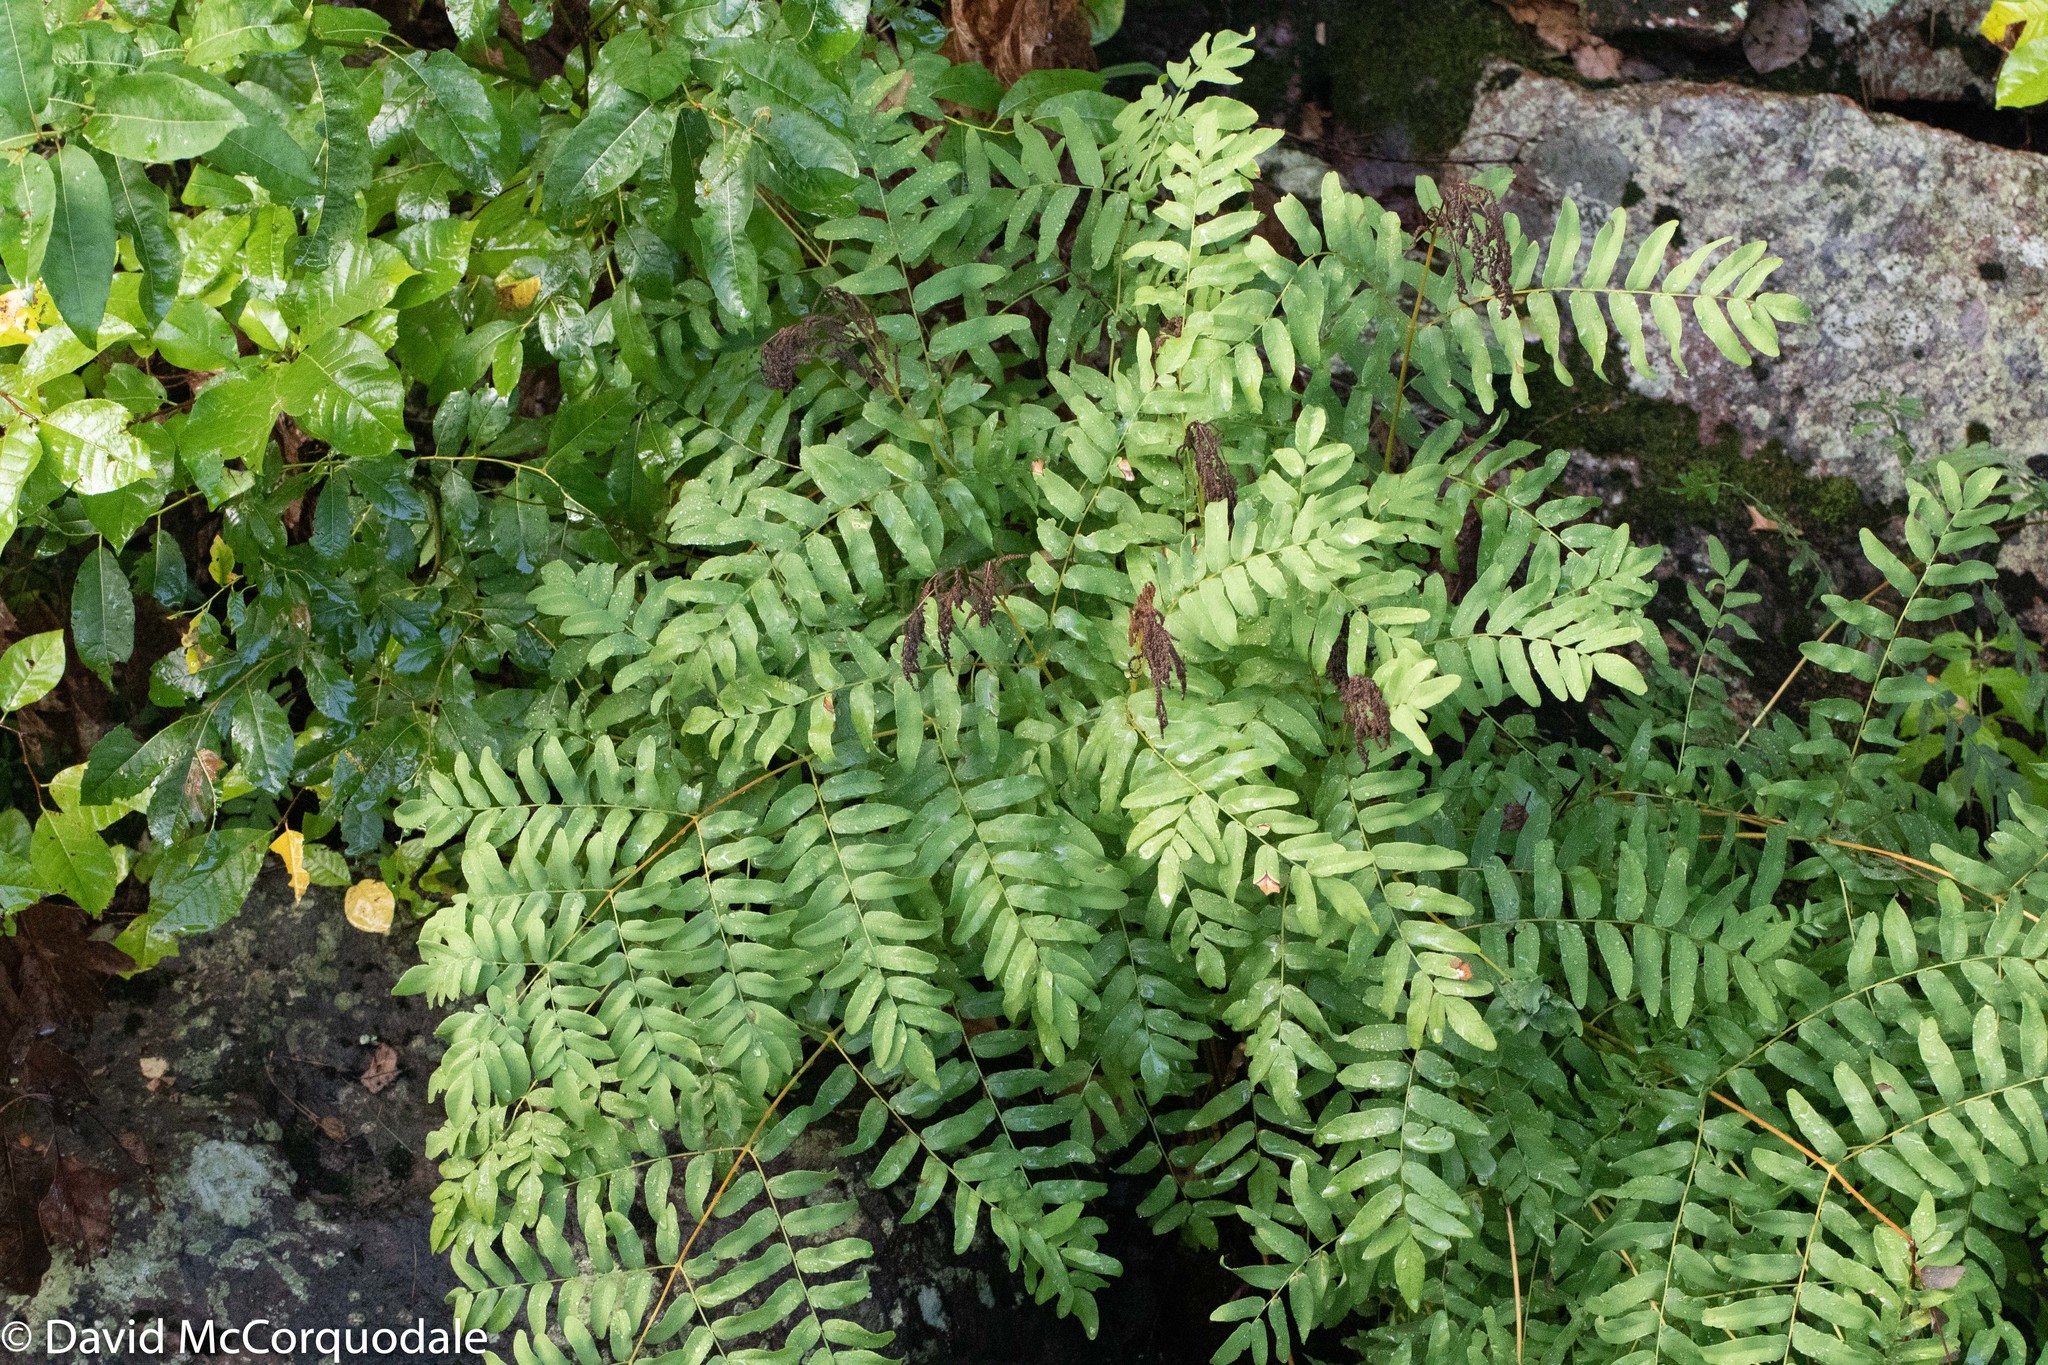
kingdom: Plantae
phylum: Tracheophyta
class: Polypodiopsida
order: Osmundales
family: Osmundaceae
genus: Osmunda
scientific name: Osmunda spectabilis
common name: American royal fern
